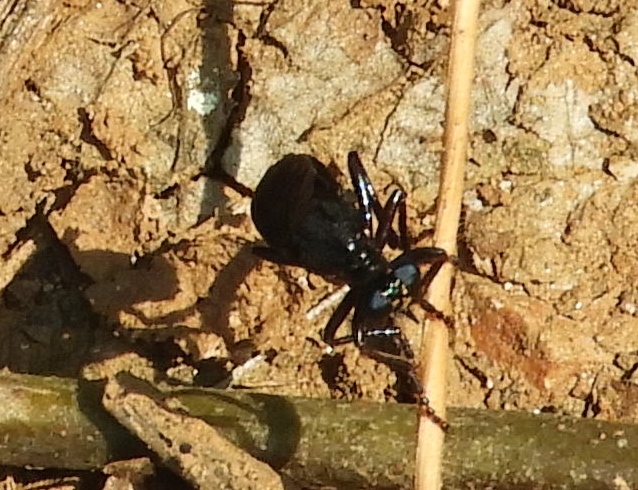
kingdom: Animalia
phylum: Arthropoda
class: Insecta
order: Diptera
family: Asilidae
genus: Saropogon
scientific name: Saropogon
